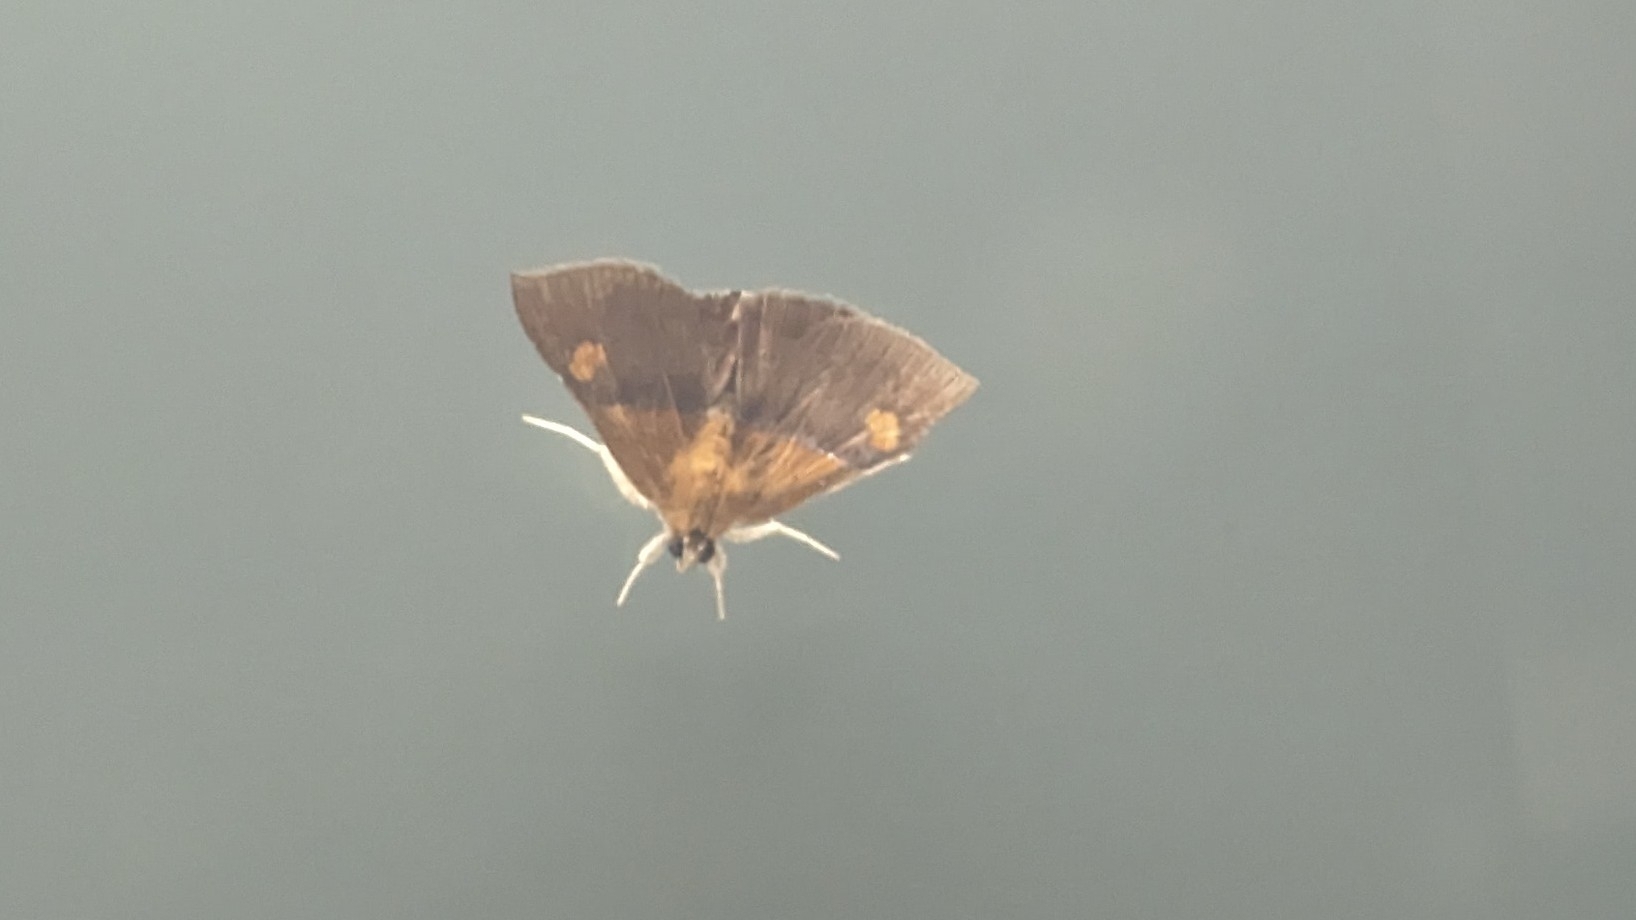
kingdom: Animalia
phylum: Arthropoda
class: Insecta
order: Lepidoptera
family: Erebidae
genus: Sympis
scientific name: Sympis rufibasis
